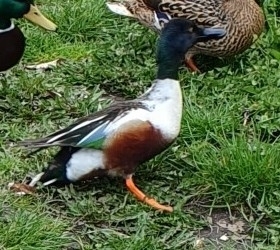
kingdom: Animalia
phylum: Chordata
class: Aves
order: Anseriformes
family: Anatidae
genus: Spatula
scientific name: Spatula clypeata
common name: Northern shoveler
